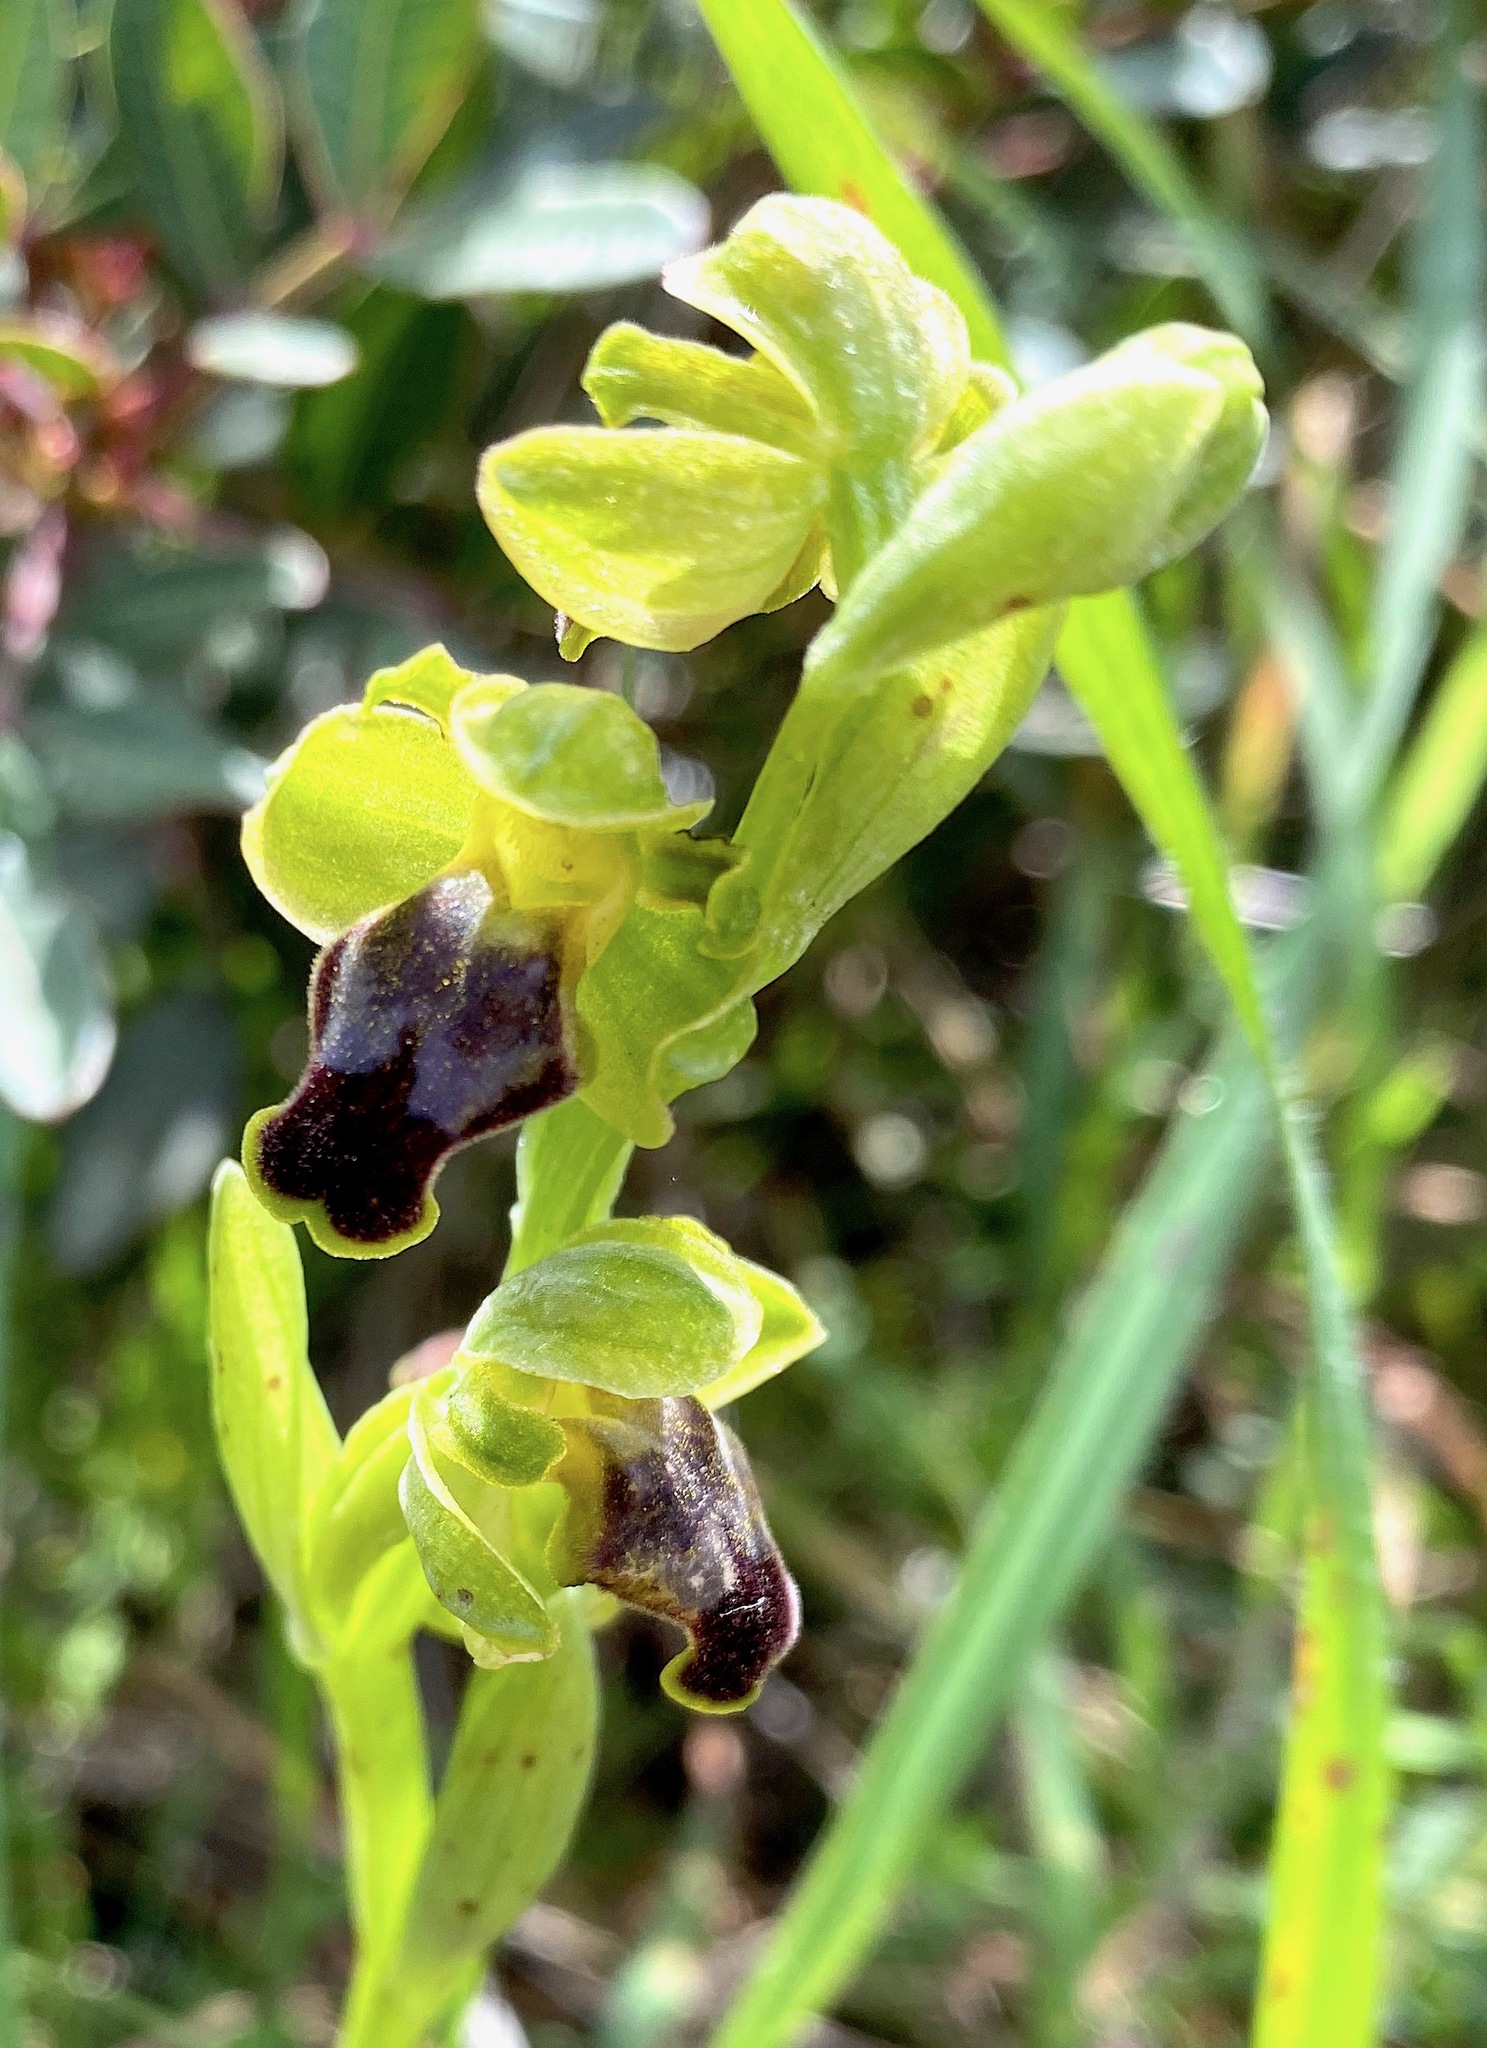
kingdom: Plantae
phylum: Tracheophyta
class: Liliopsida
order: Asparagales
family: Orchidaceae
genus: Ophrys
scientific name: Ophrys fusca
